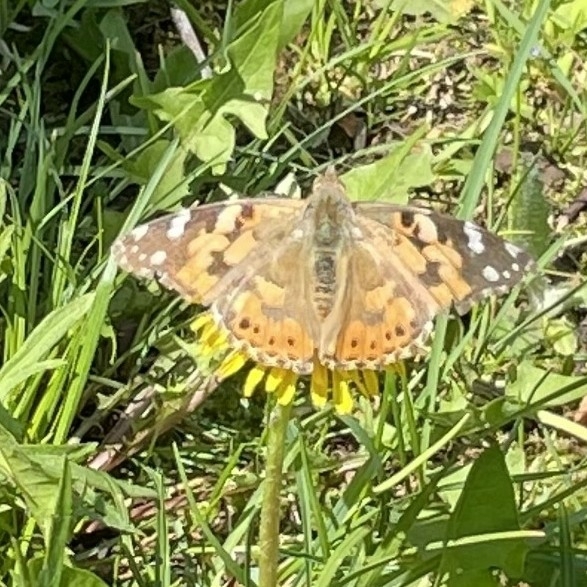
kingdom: Animalia
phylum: Arthropoda
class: Insecta
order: Lepidoptera
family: Nymphalidae
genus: Vanessa
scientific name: Vanessa cardui
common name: Painted lady
